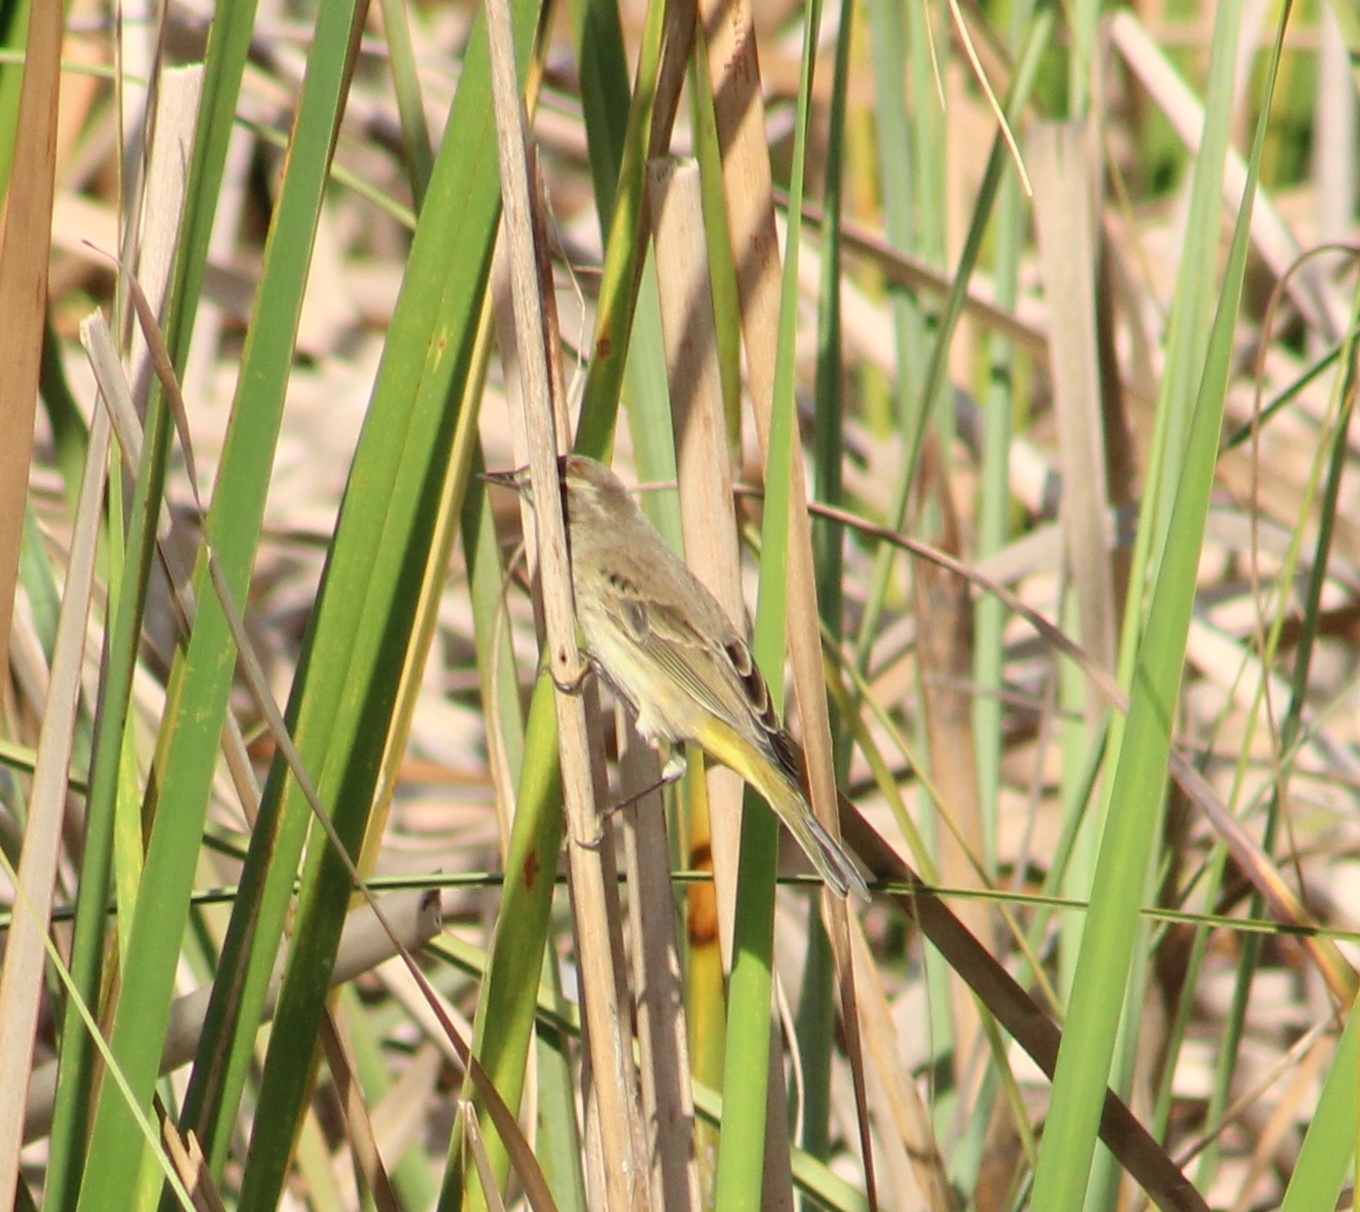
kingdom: Animalia
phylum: Chordata
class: Aves
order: Passeriformes
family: Parulidae
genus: Setophaga
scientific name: Setophaga palmarum
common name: Palm warbler
